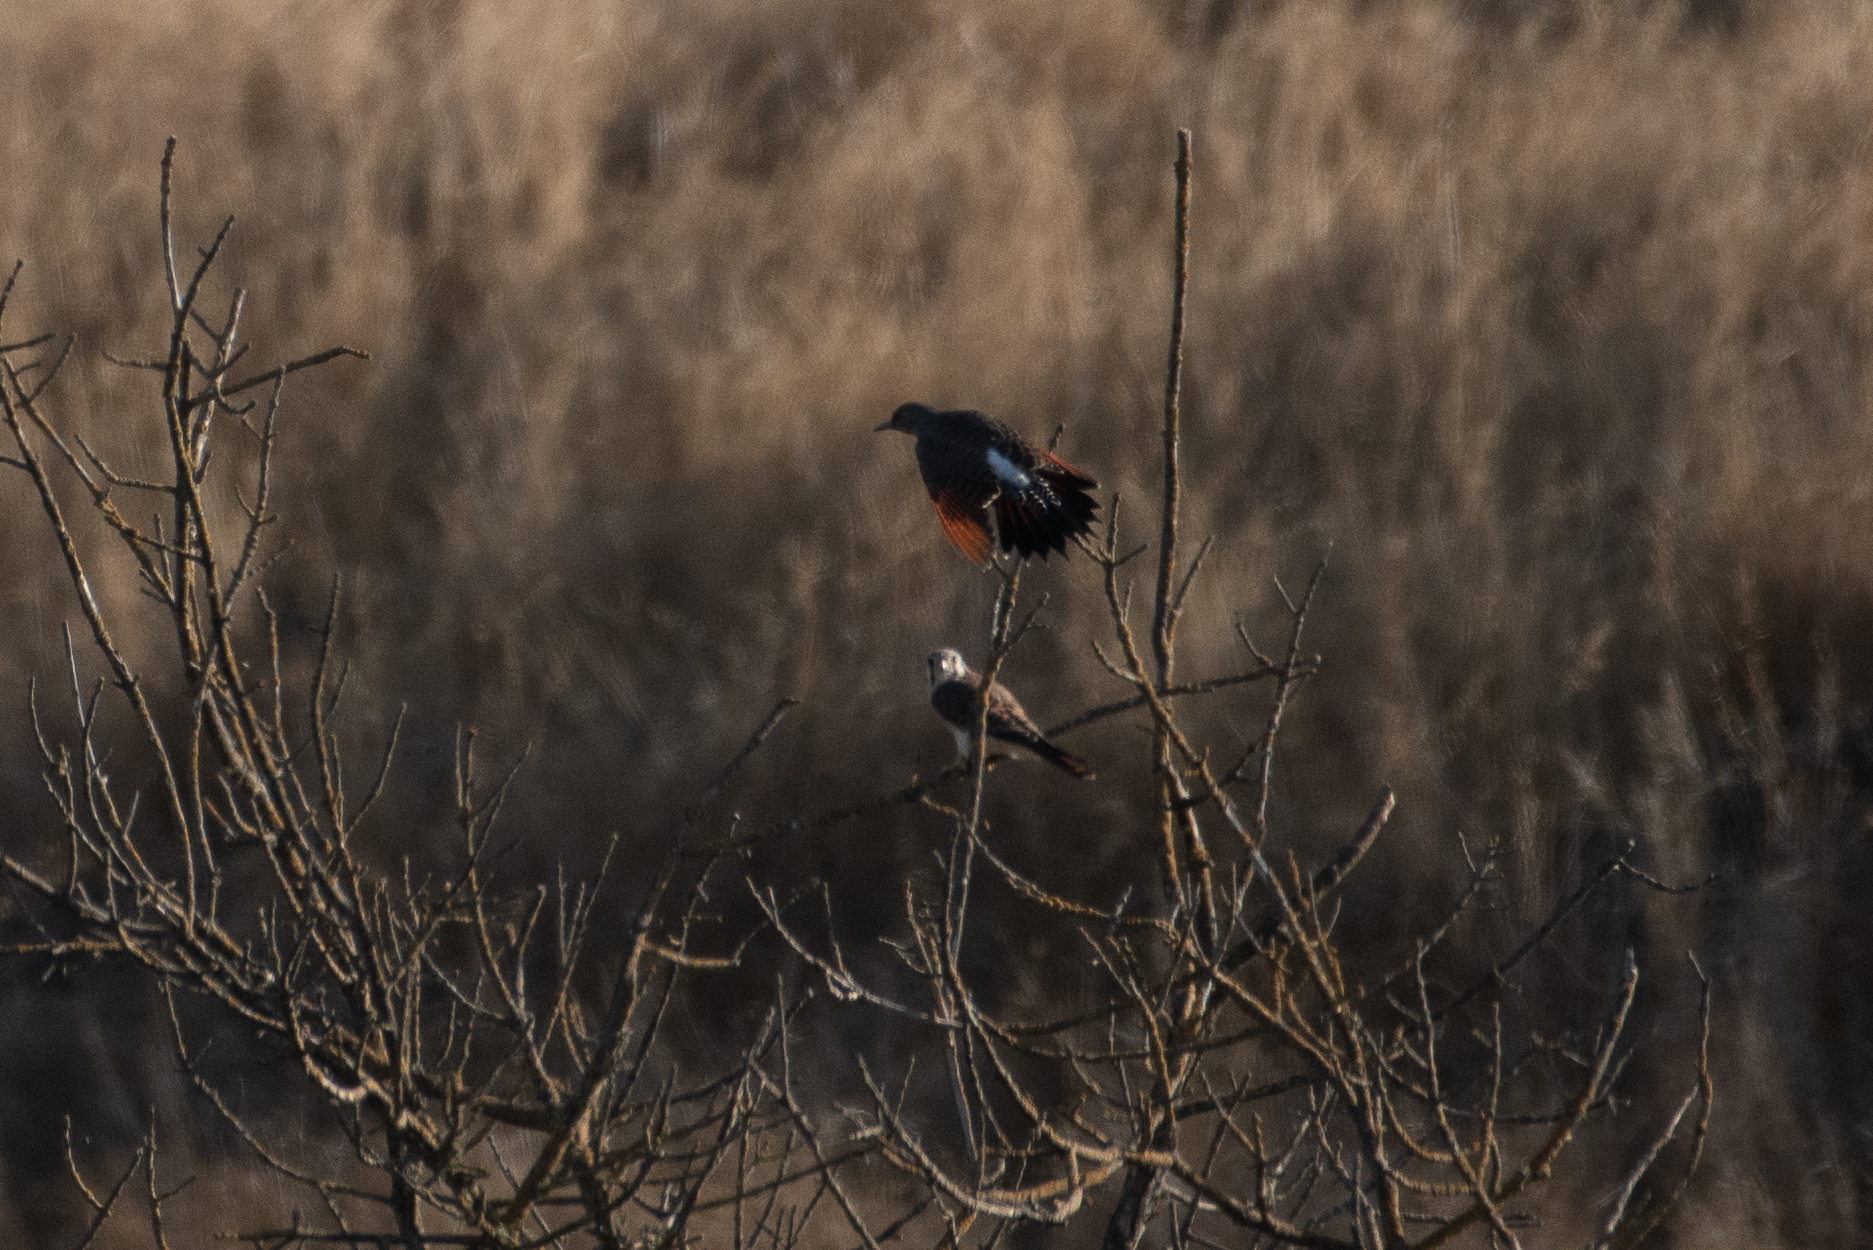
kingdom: Animalia
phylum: Chordata
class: Aves
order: Piciformes
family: Picidae
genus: Colaptes
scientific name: Colaptes auratus
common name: Northern flicker
